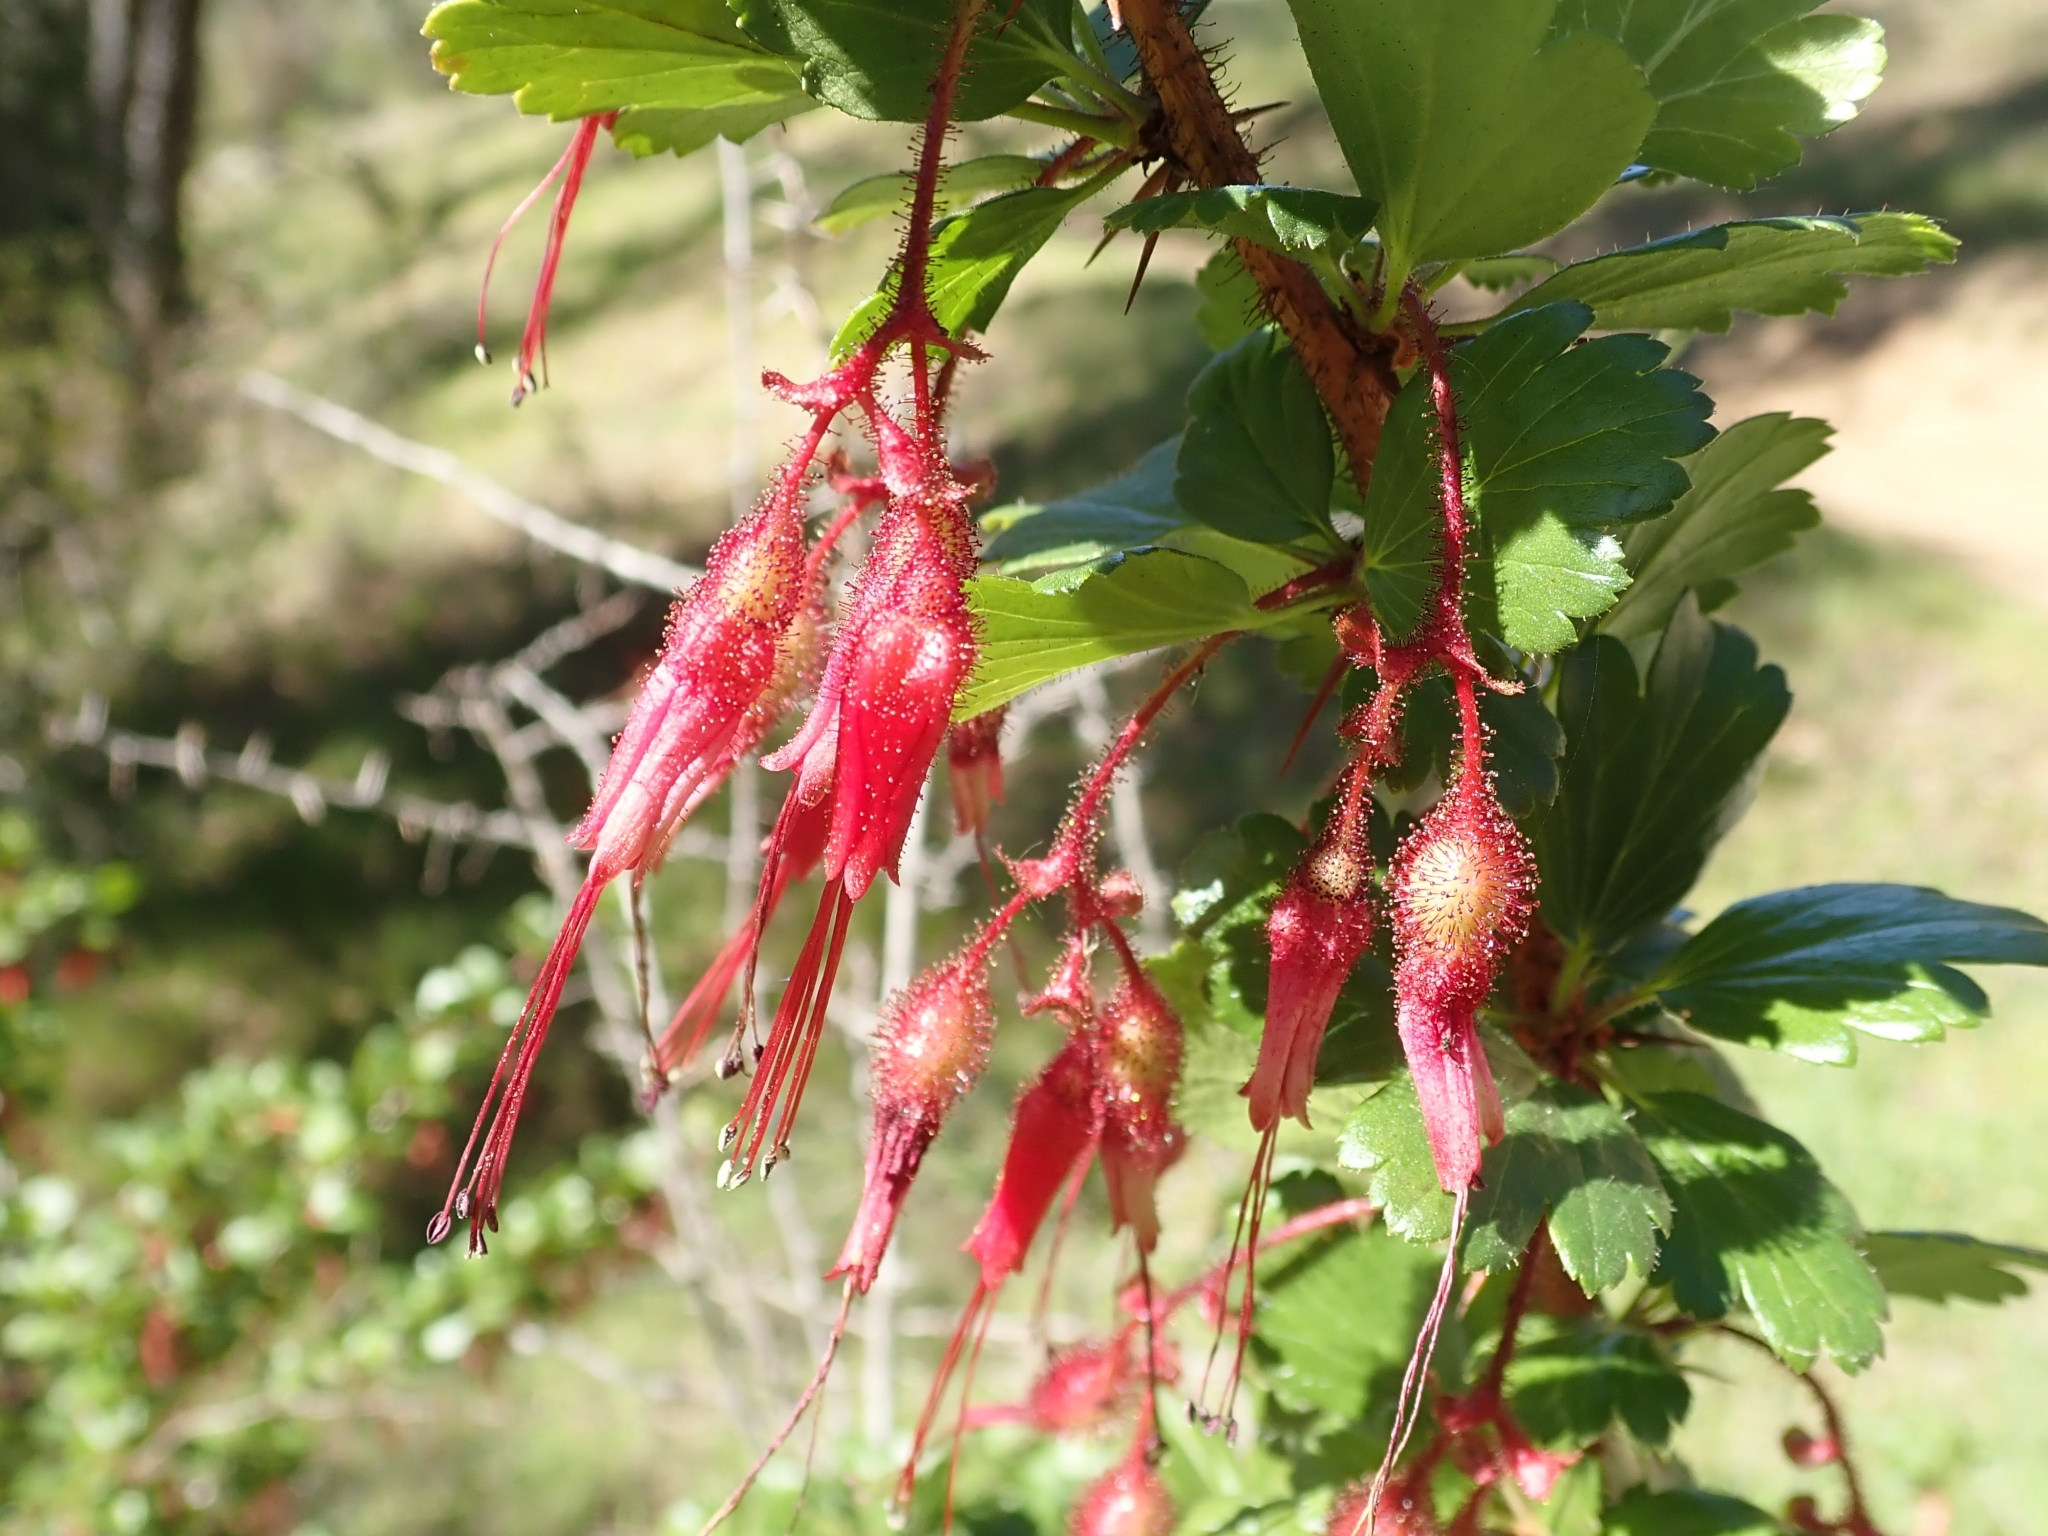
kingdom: Plantae
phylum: Tracheophyta
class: Magnoliopsida
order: Saxifragales
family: Grossulariaceae
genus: Ribes
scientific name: Ribes speciosum
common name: Fuchsia-flower gooseberry
